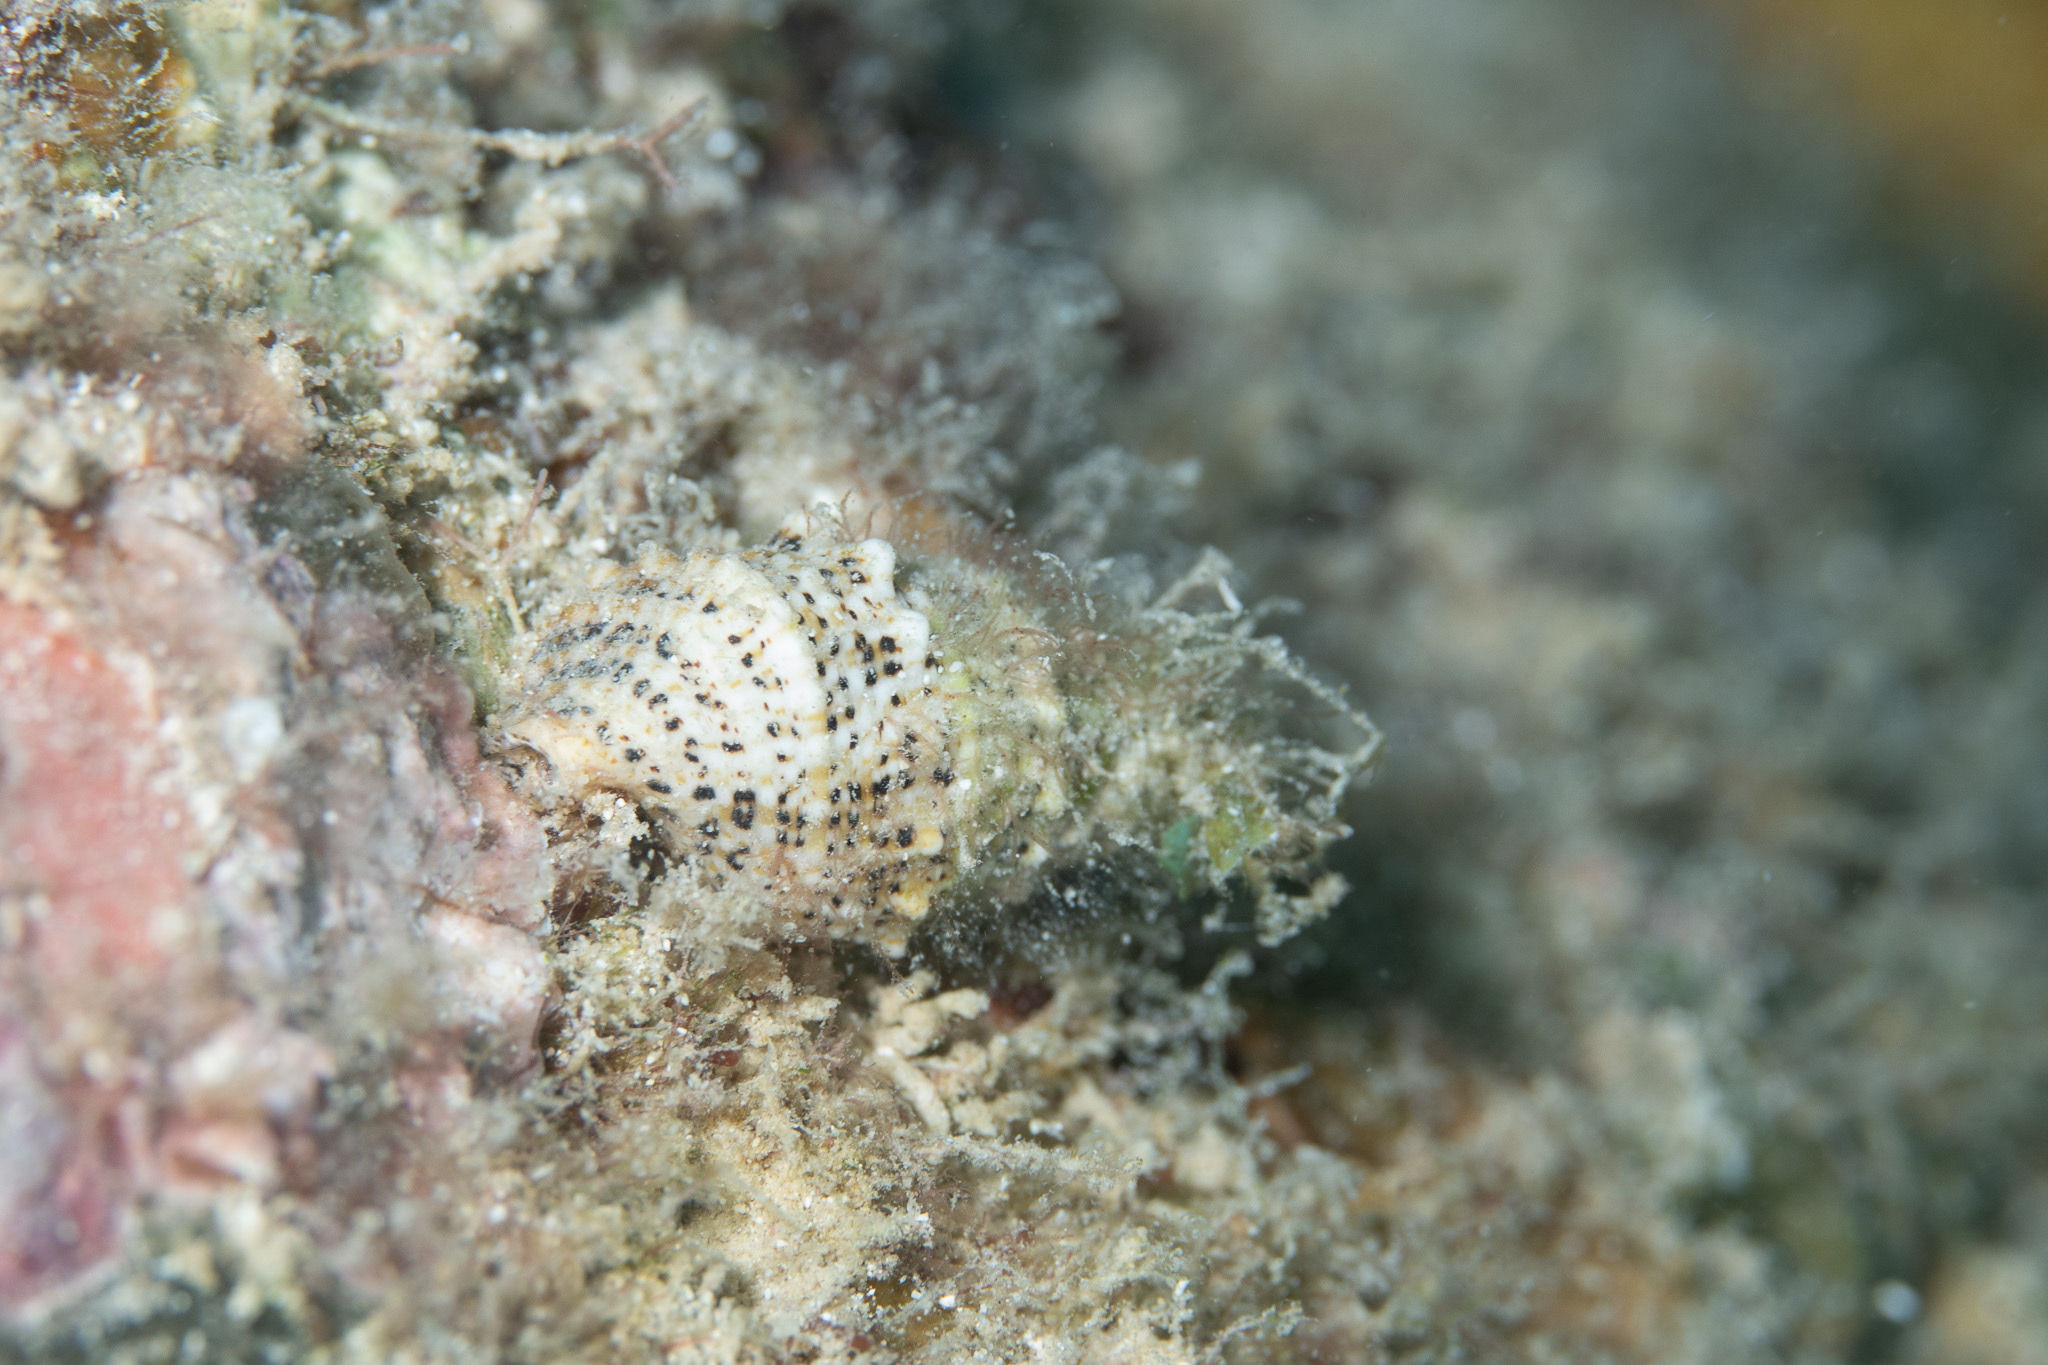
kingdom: Animalia
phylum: Mollusca
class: Gastropoda
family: Cerithiidae
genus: Cerithium
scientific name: Cerithium litteratum
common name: Stocky cerith
